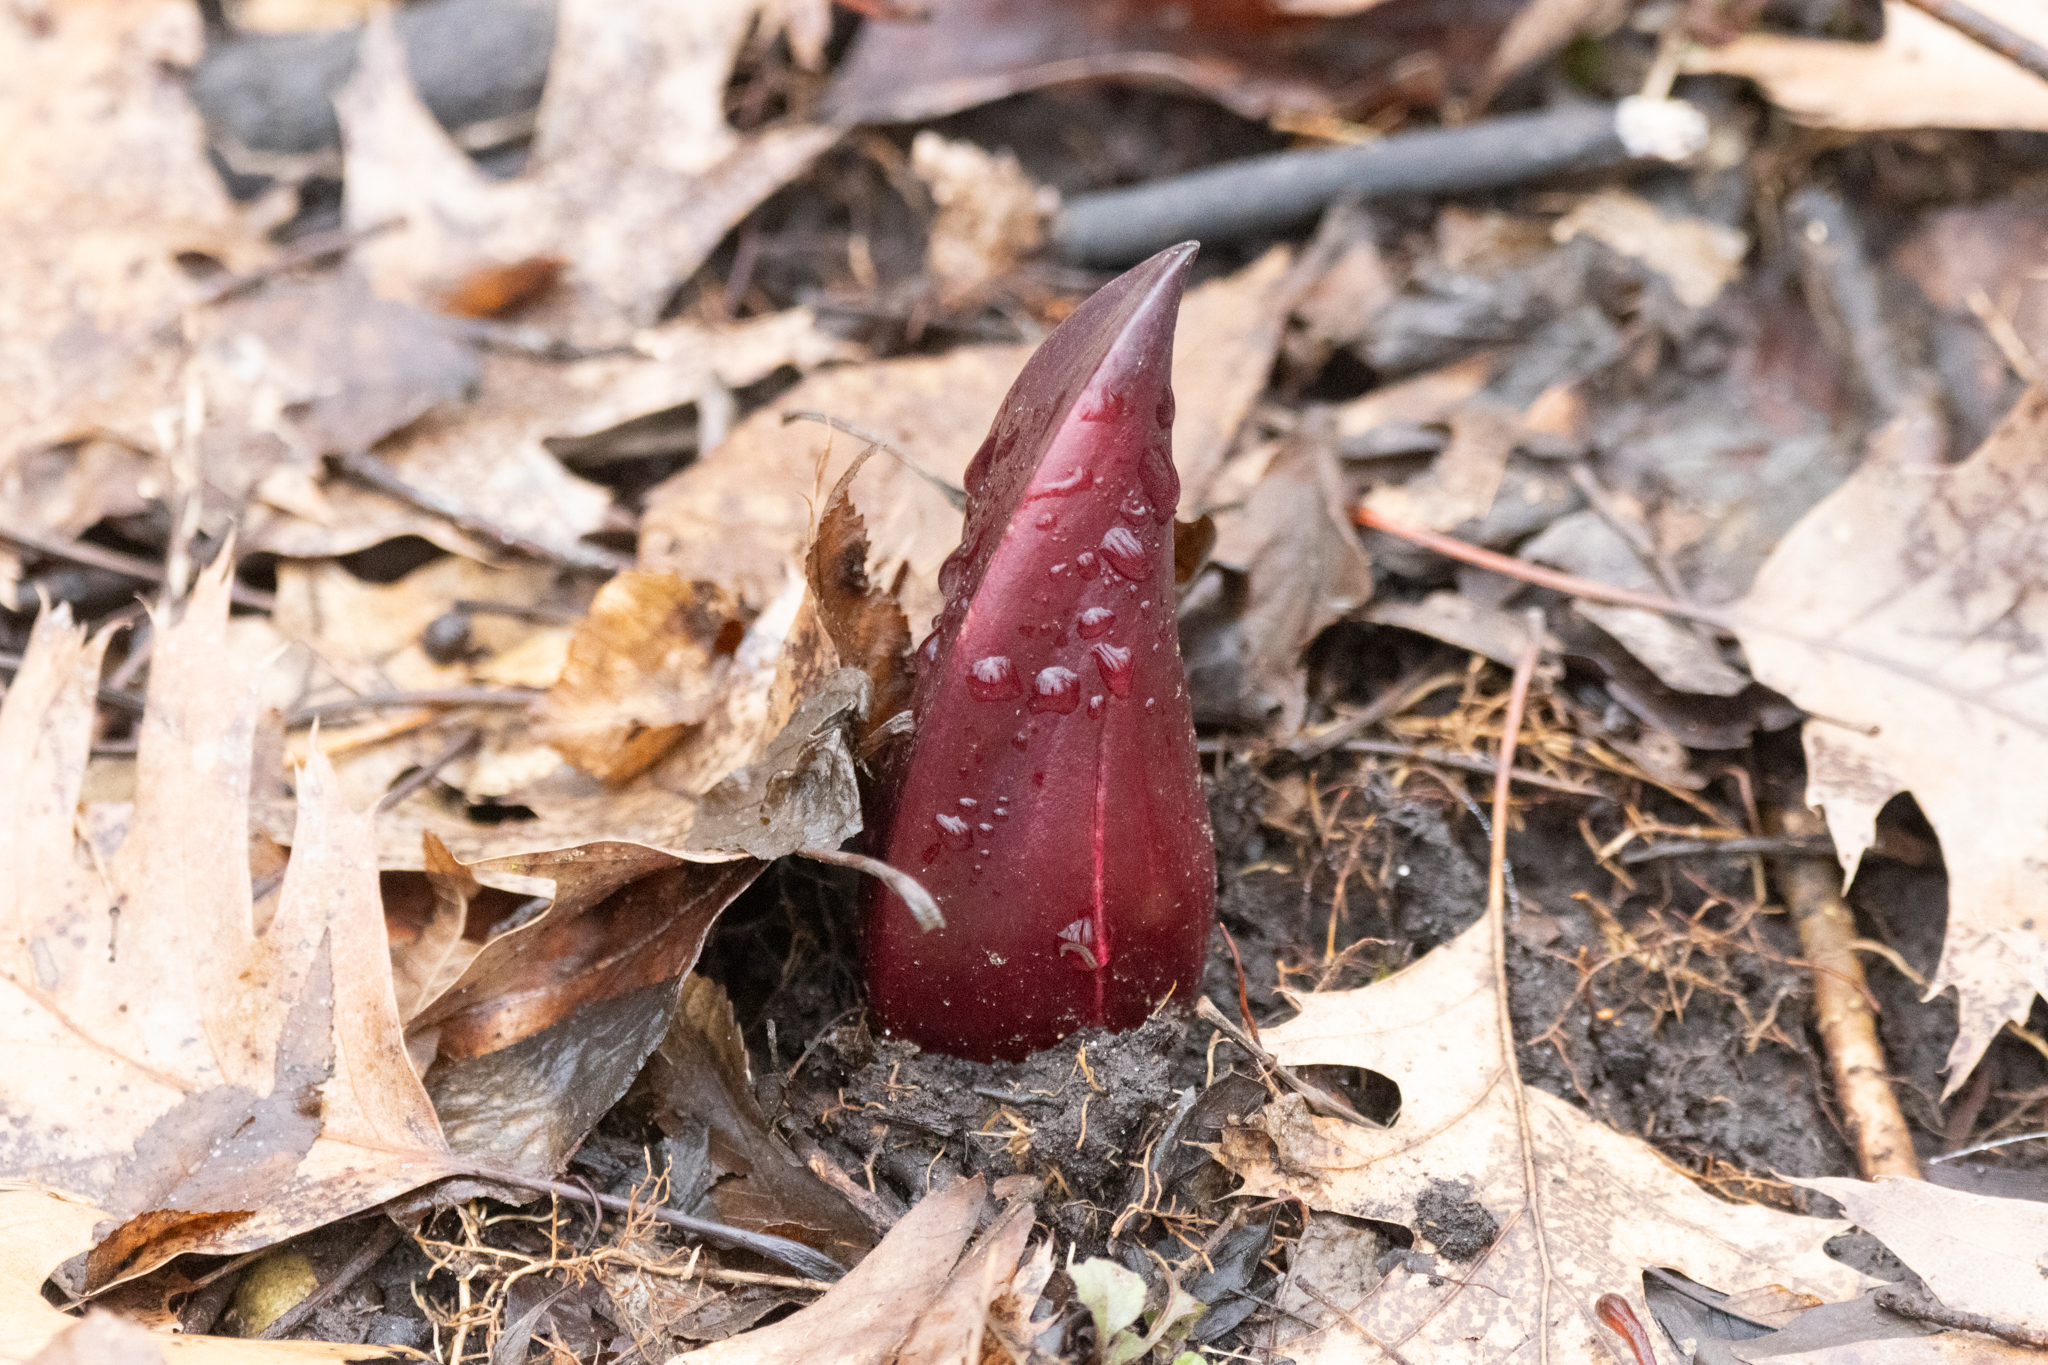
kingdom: Plantae
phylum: Tracheophyta
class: Liliopsida
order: Alismatales
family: Araceae
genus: Symplocarpus
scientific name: Symplocarpus foetidus
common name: Eastern skunk cabbage
